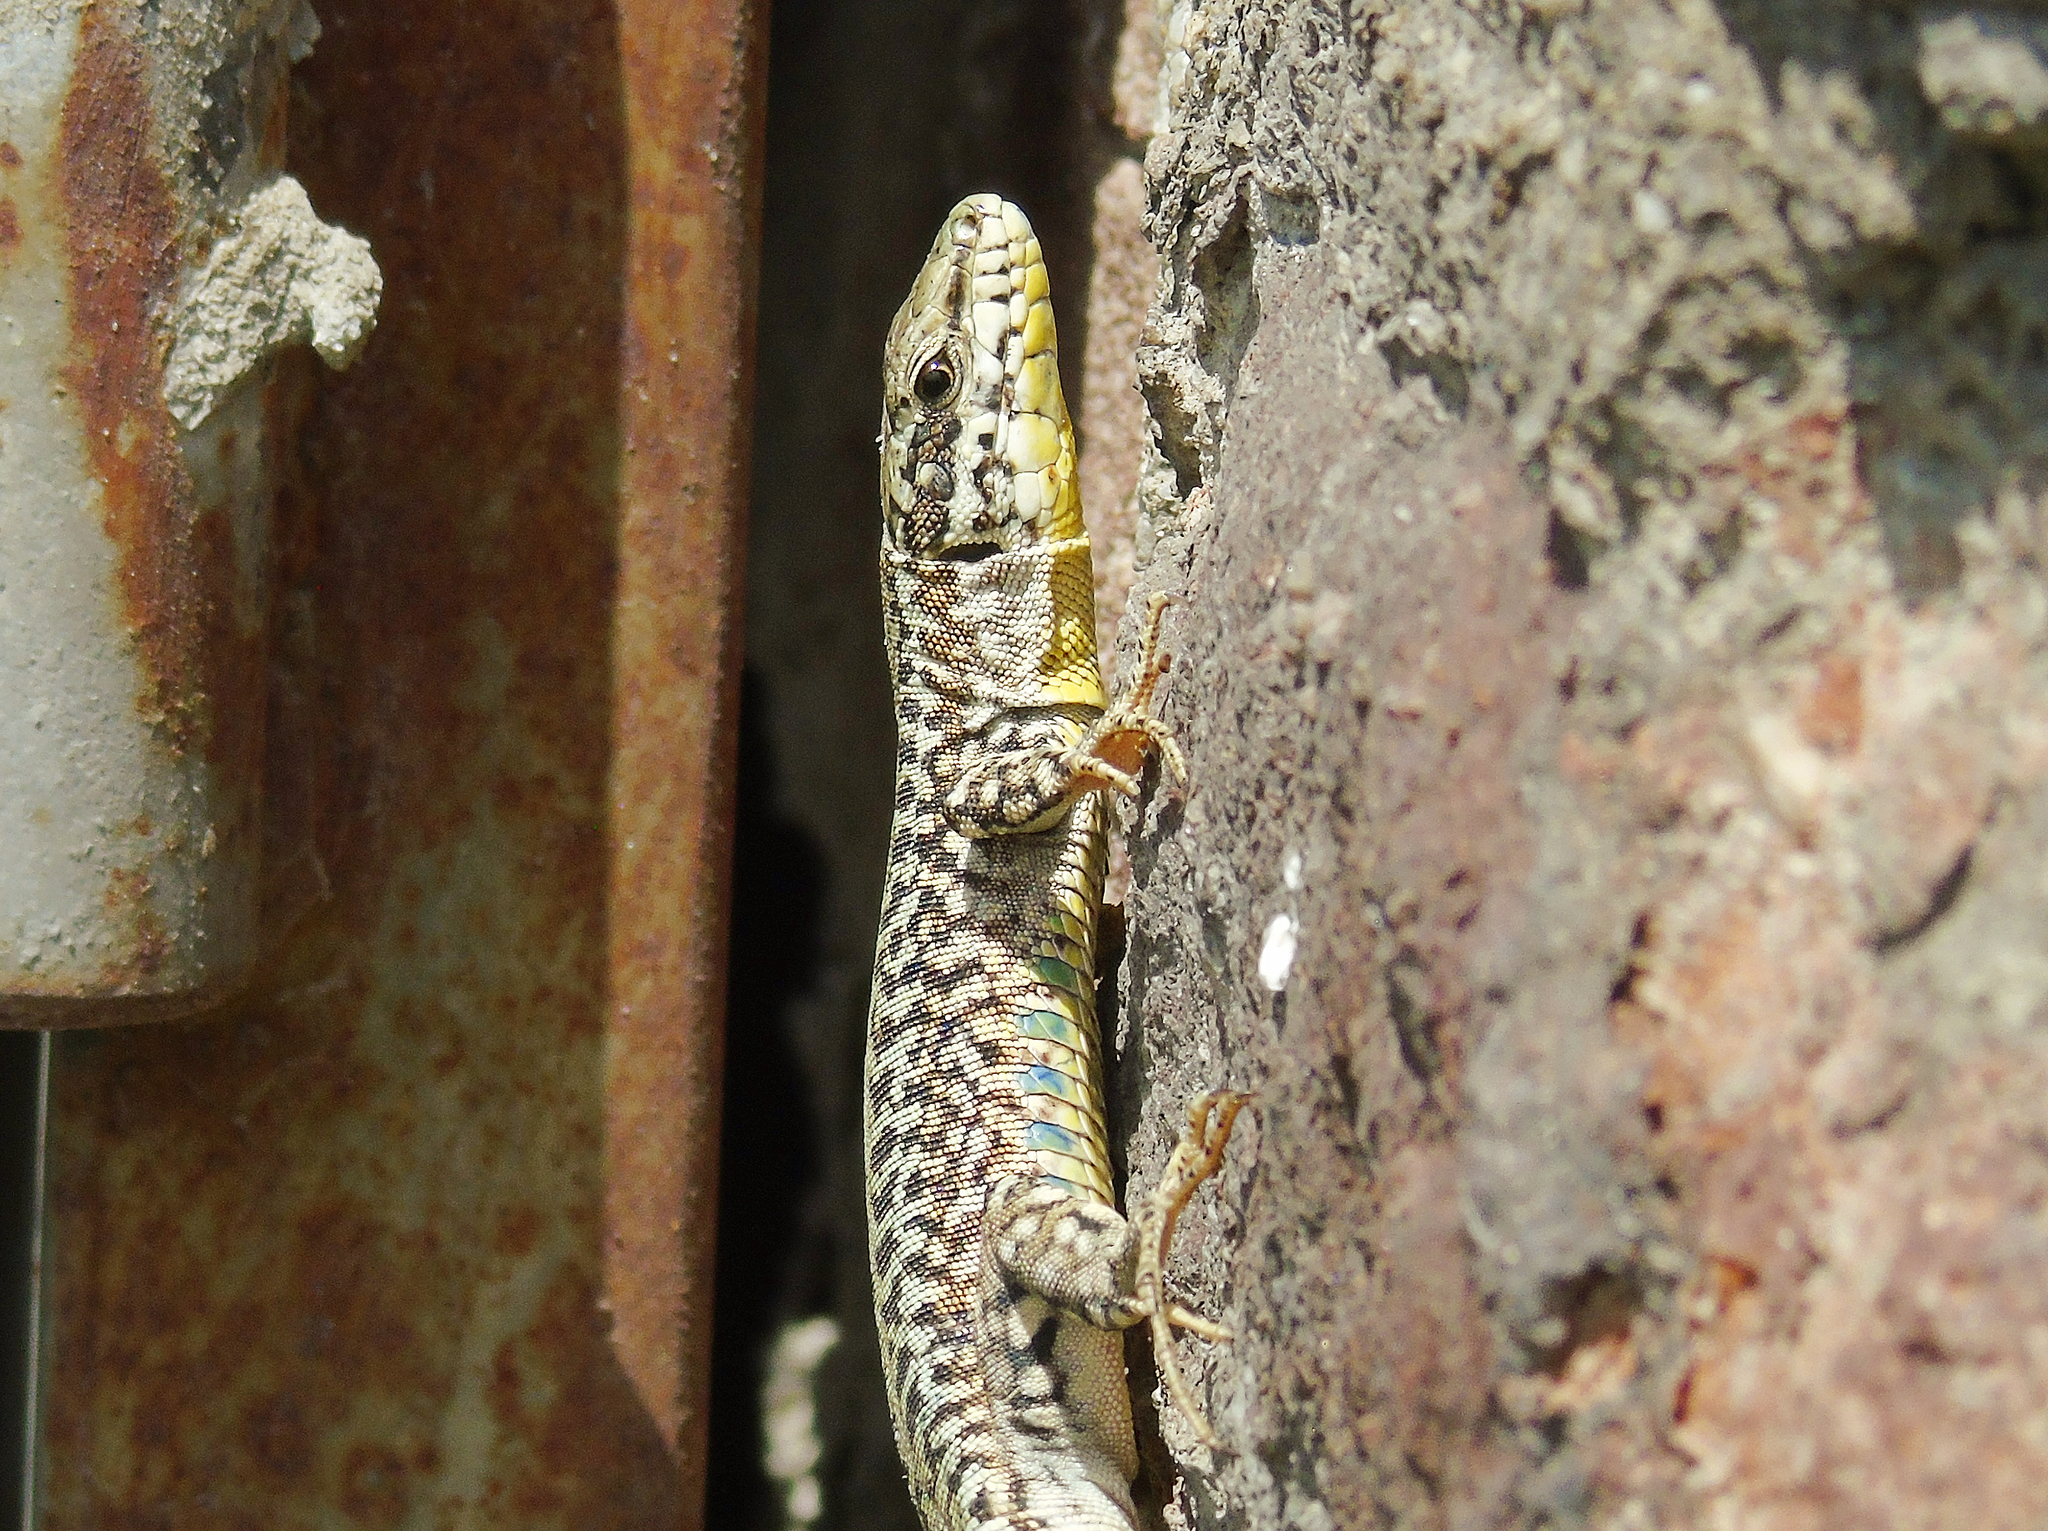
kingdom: Animalia
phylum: Chordata
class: Squamata
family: Lacertidae
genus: Podarcis
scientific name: Podarcis erhardii
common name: Erhard's wall lizard
